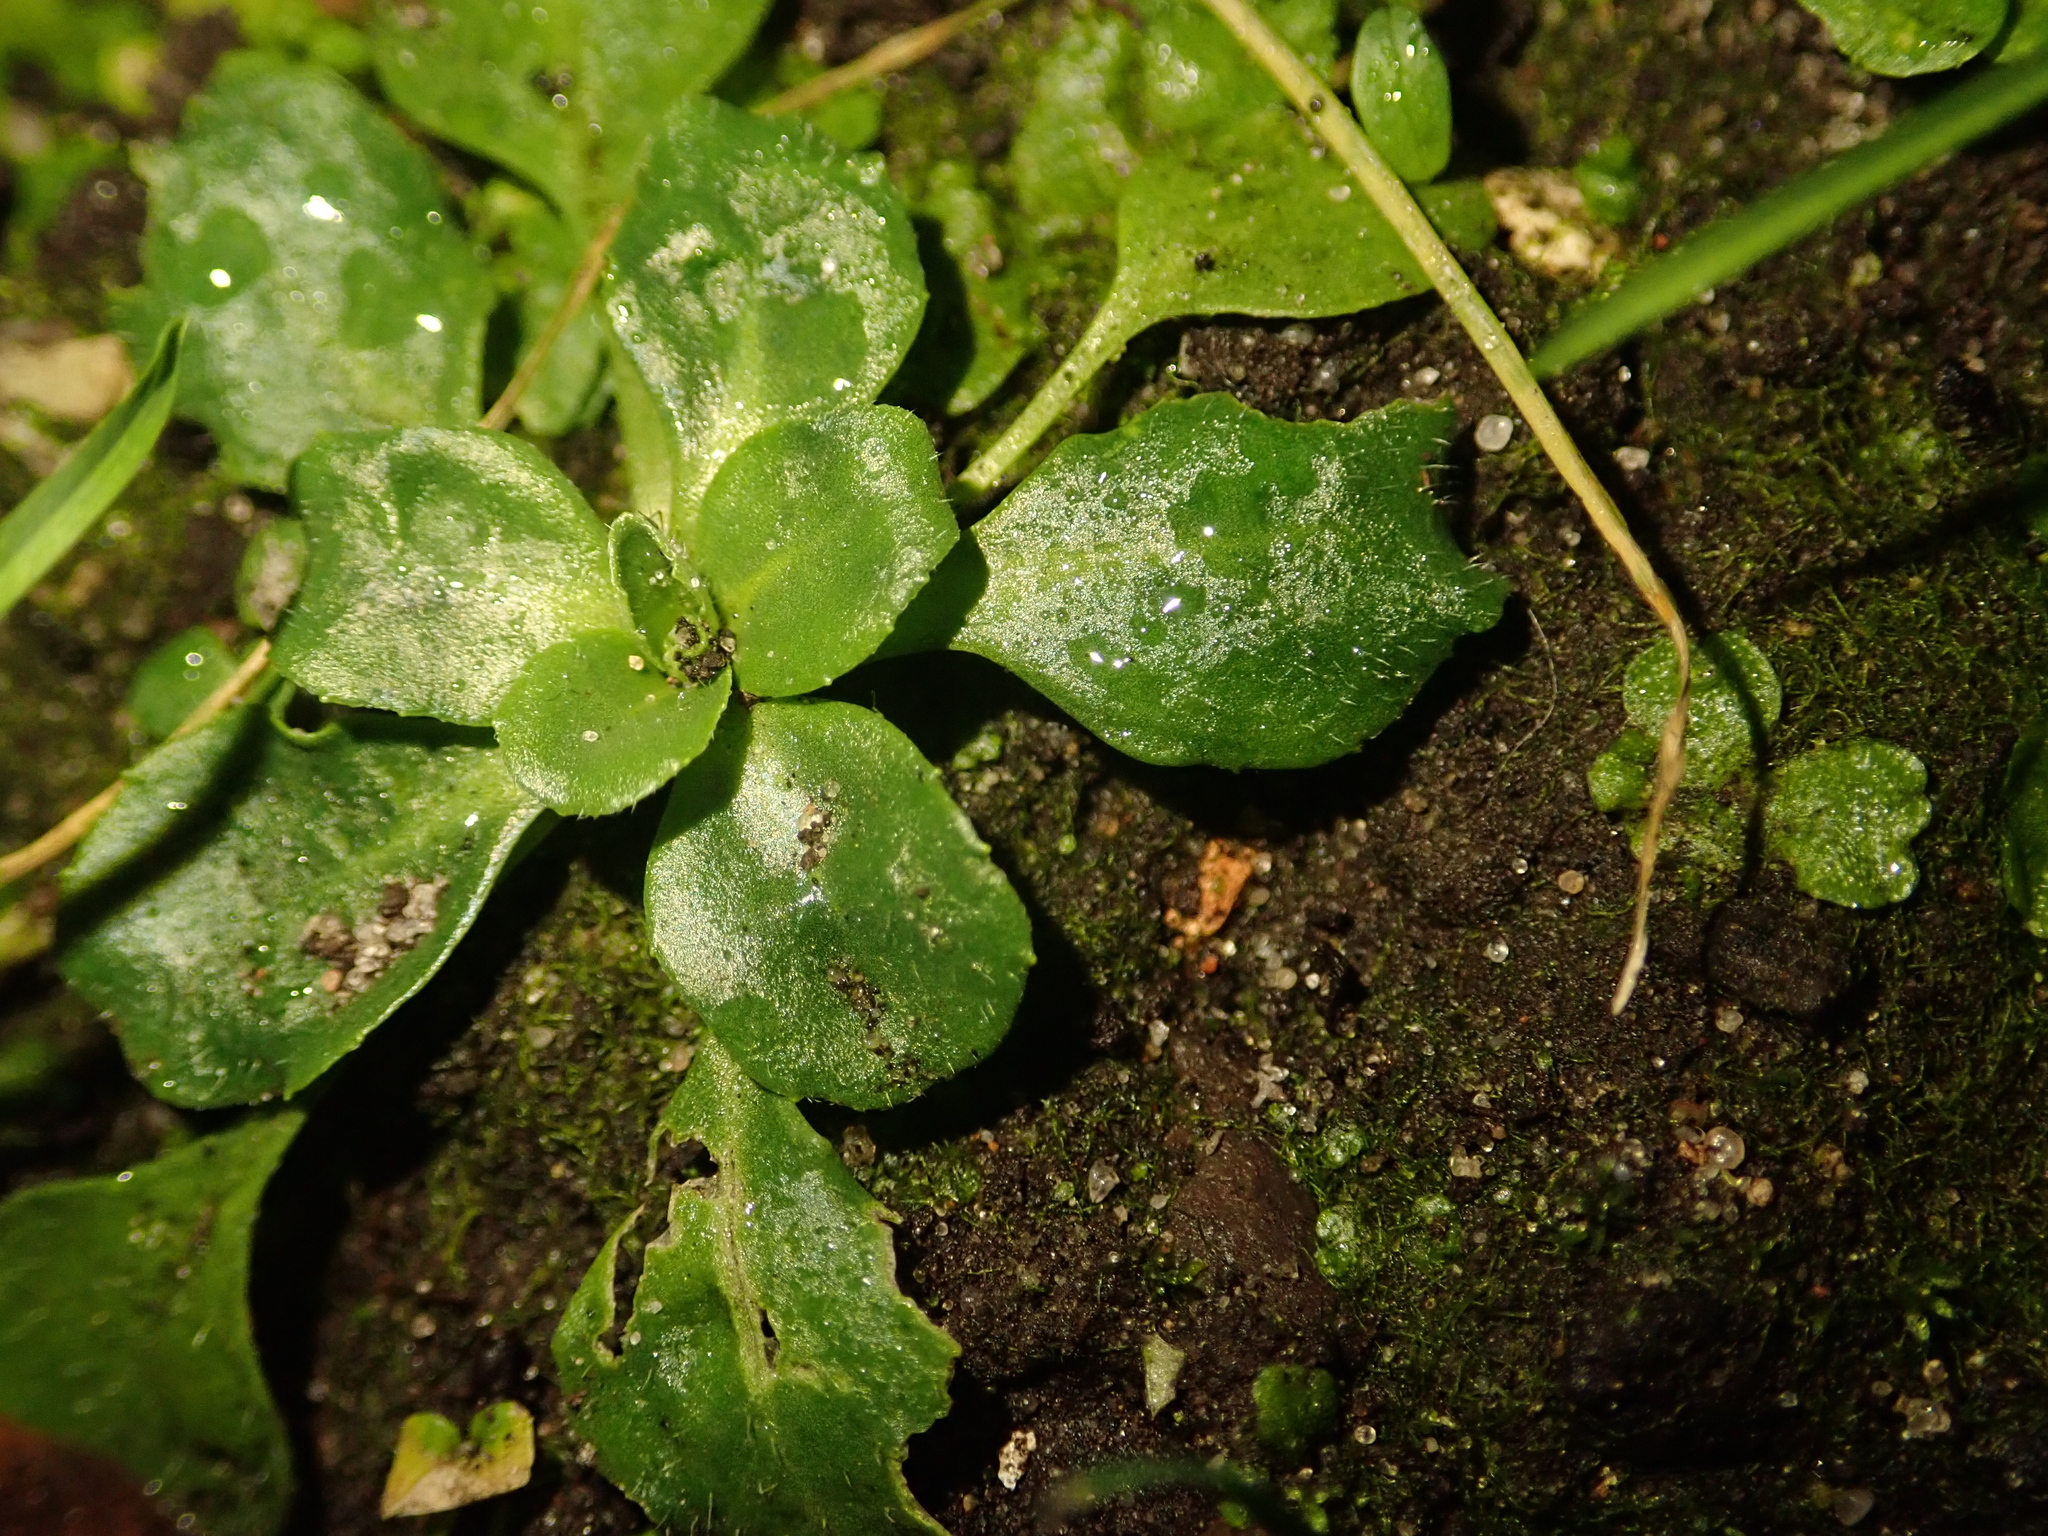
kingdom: Plantae
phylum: Tracheophyta
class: Magnoliopsida
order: Asterales
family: Asteraceae
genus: Bellis
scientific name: Bellis perennis
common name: Lawndaisy
